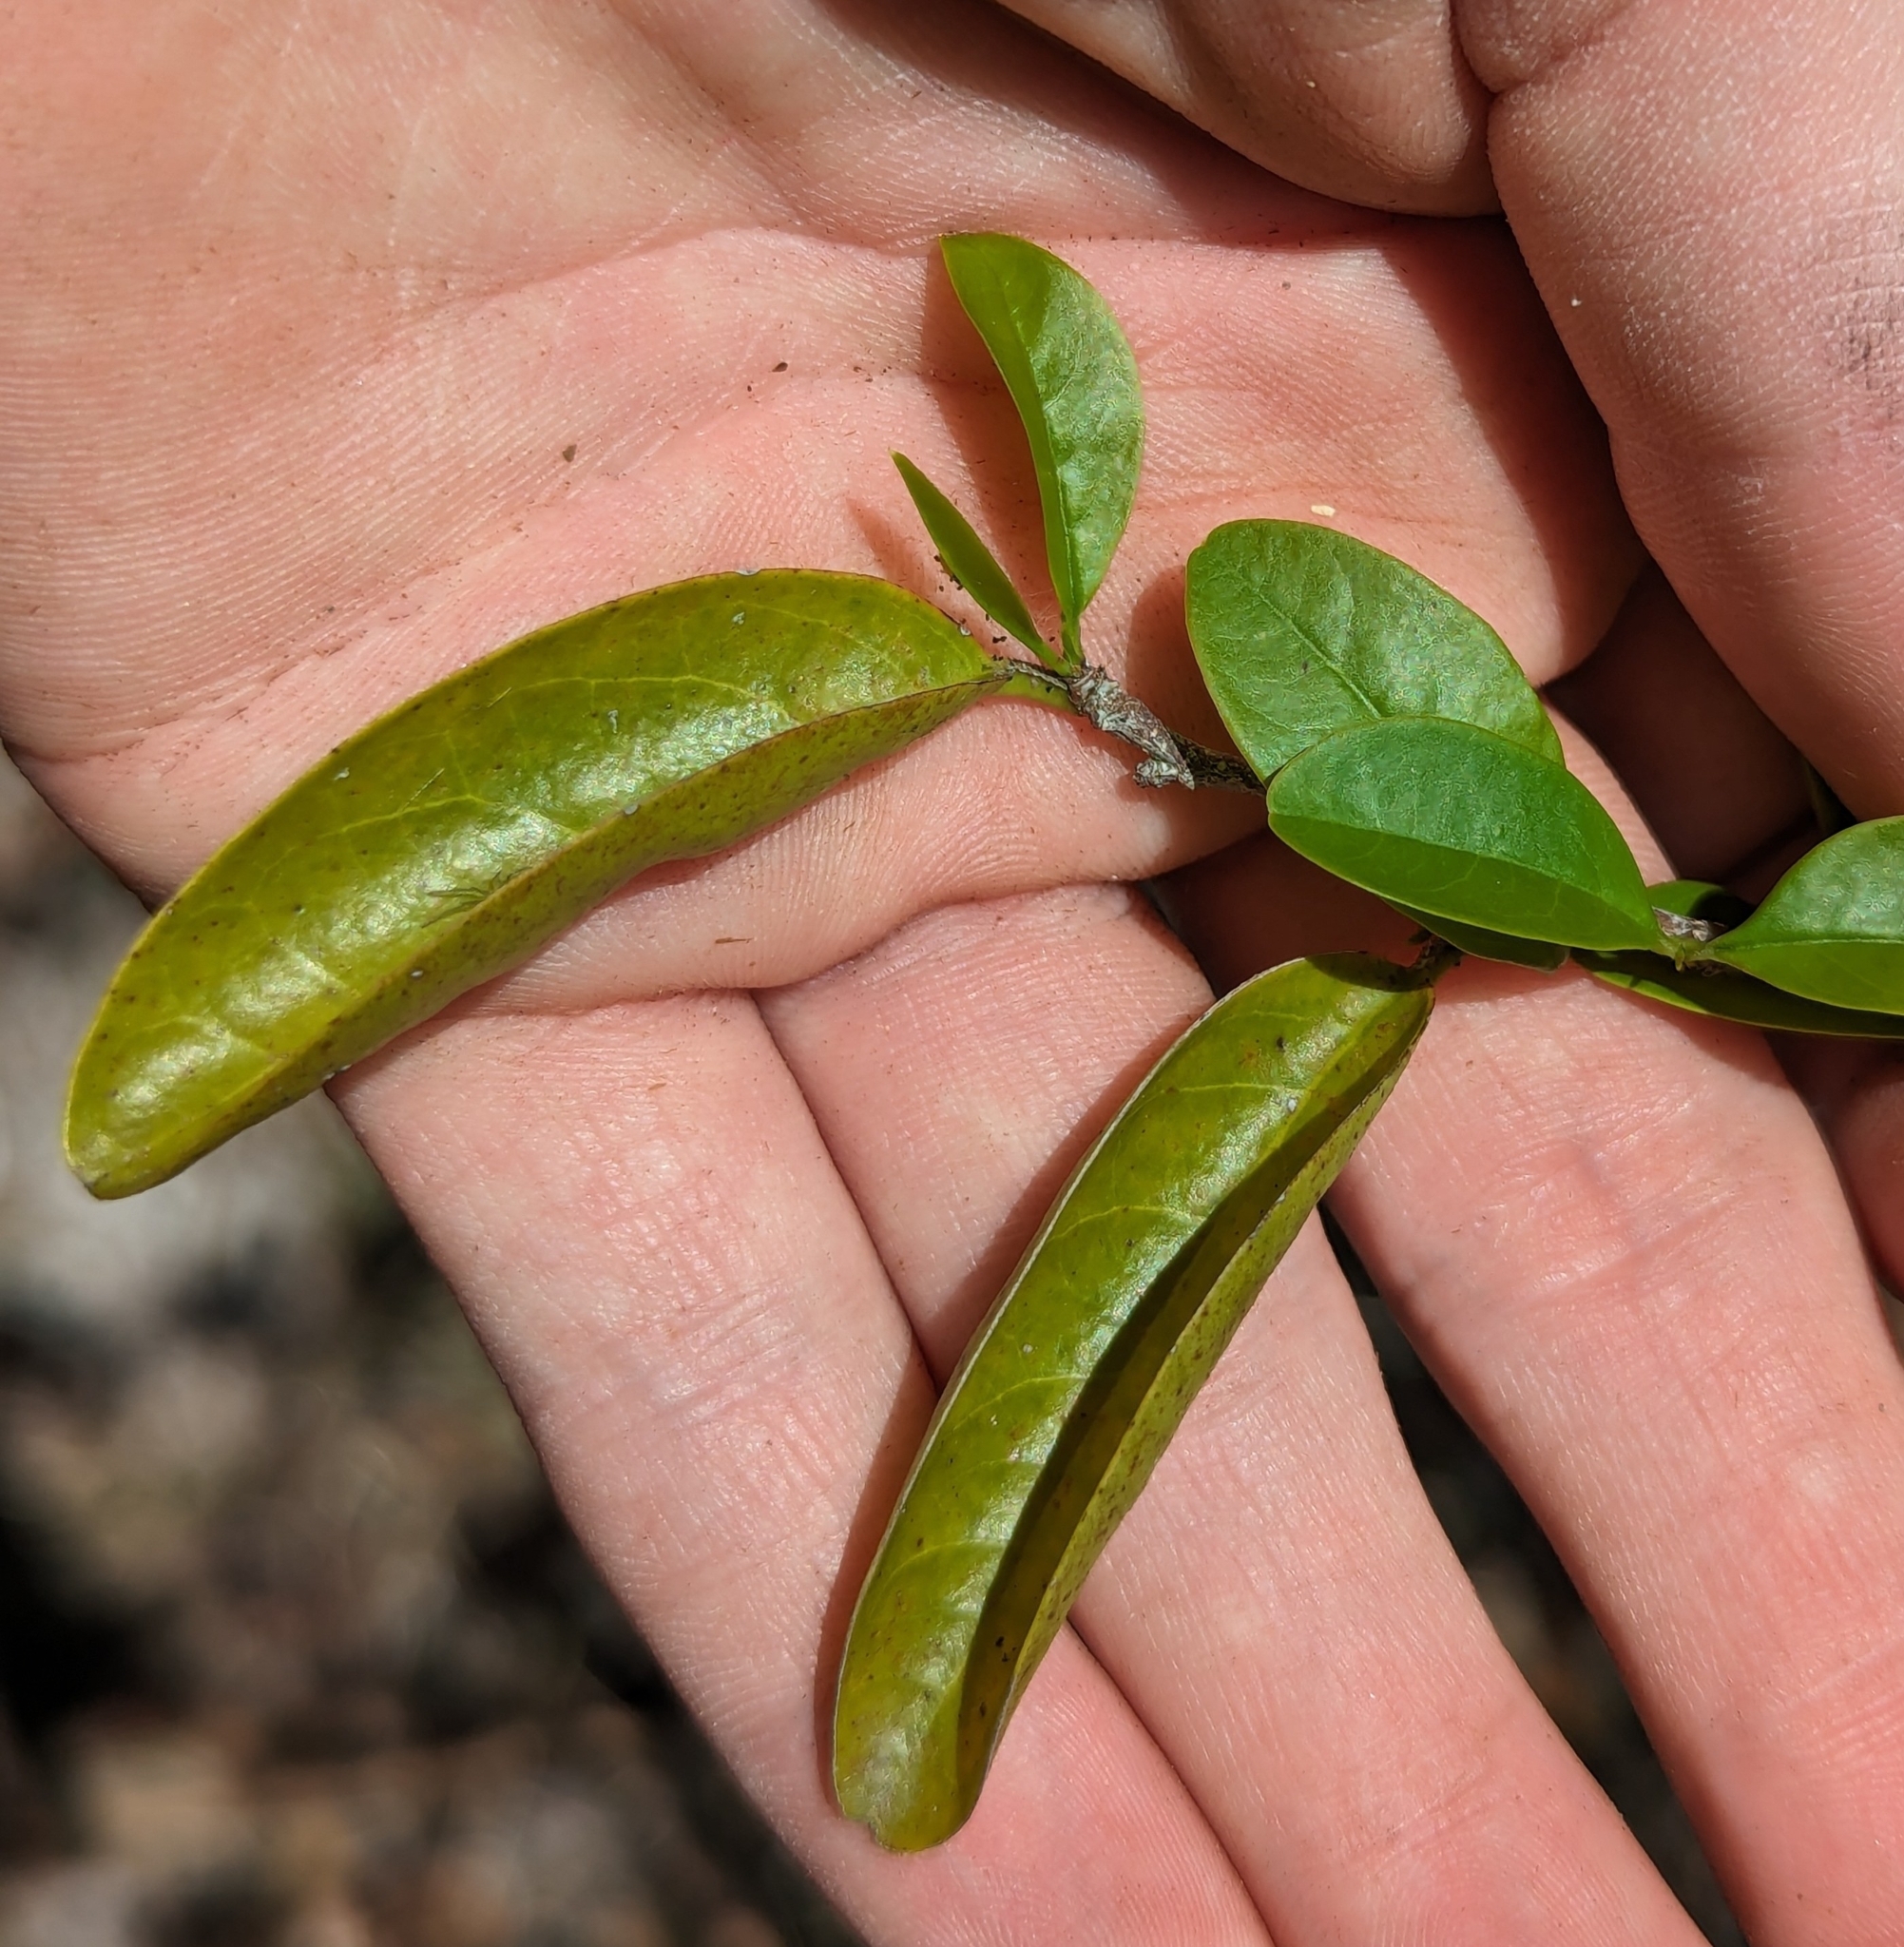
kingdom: Plantae
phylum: Tracheophyta
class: Magnoliopsida
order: Santalales
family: Ximeniaceae
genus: Ximenia
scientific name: Ximenia americana
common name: Tallowwood
